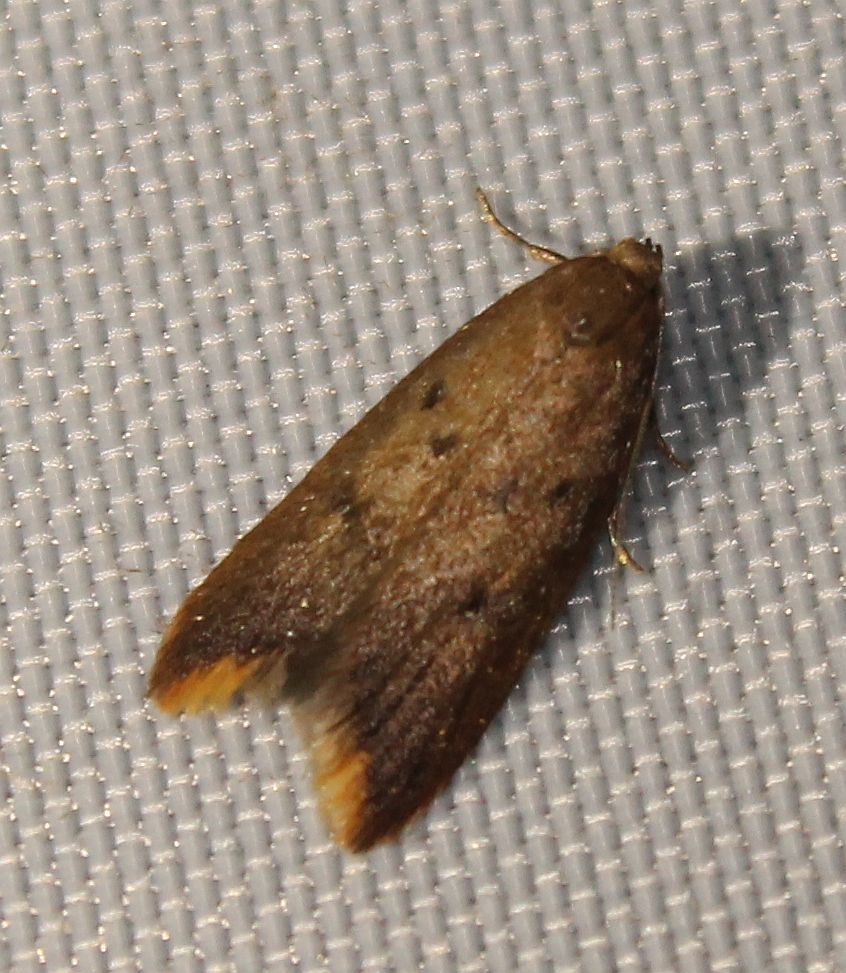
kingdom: Animalia
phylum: Arthropoda
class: Insecta
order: Lepidoptera
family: Oecophoridae
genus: Tachystola
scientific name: Tachystola acroxantha
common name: Ruddy streak
